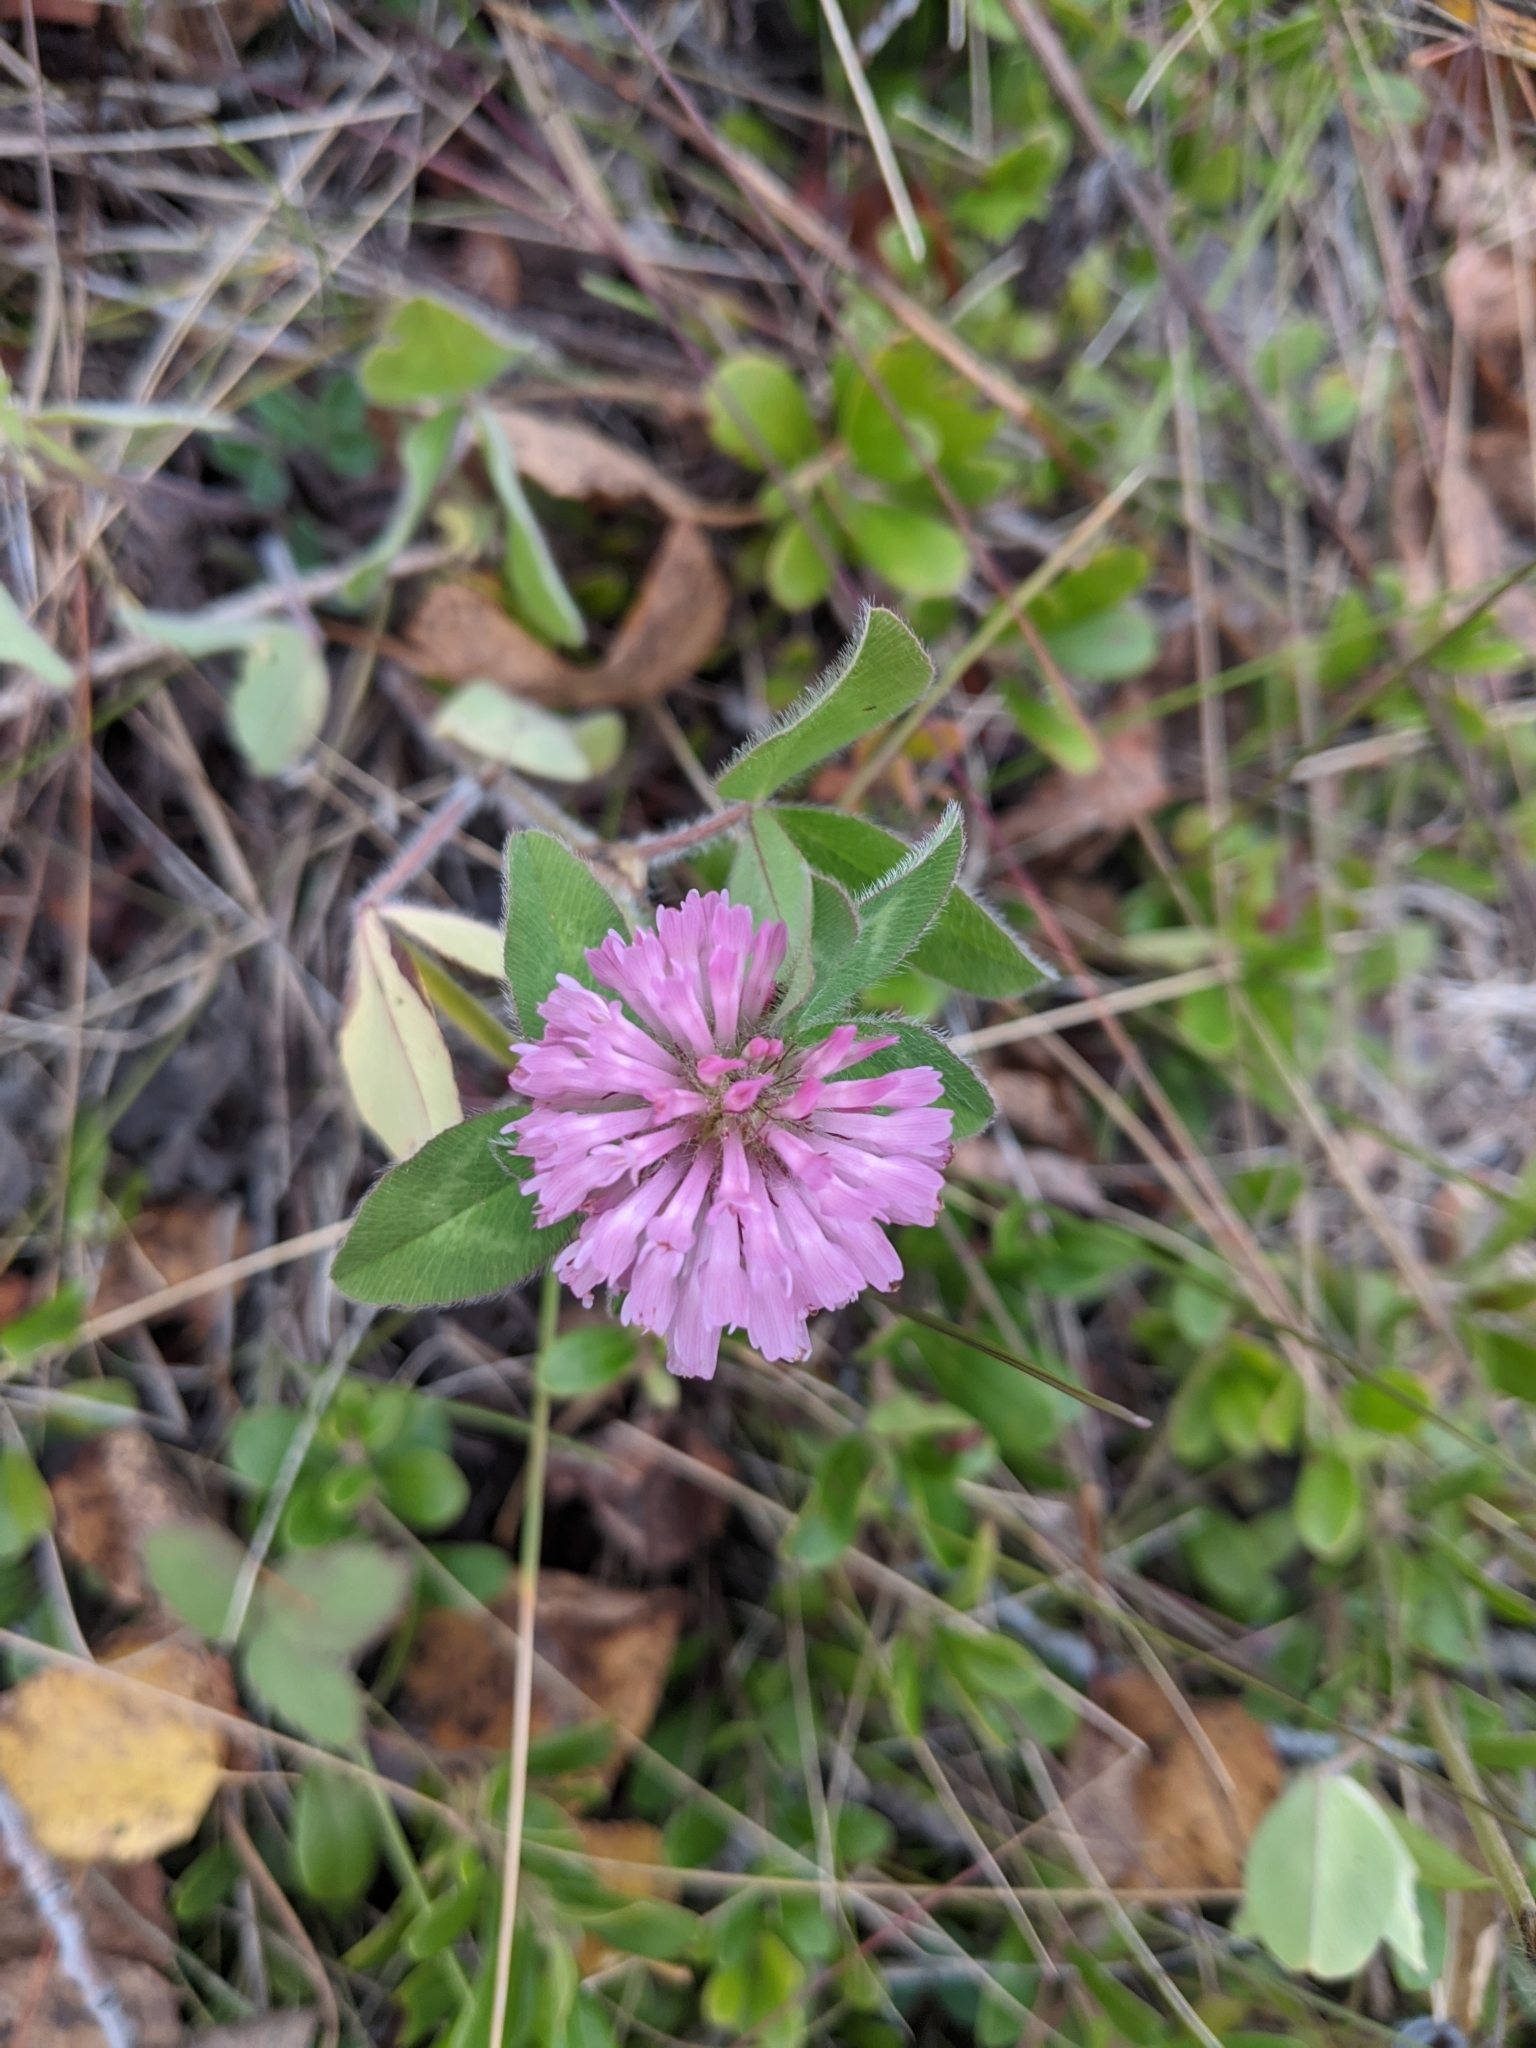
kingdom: Plantae
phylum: Tracheophyta
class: Magnoliopsida
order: Fabales
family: Fabaceae
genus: Trifolium
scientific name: Trifolium pratense
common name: Red clover
